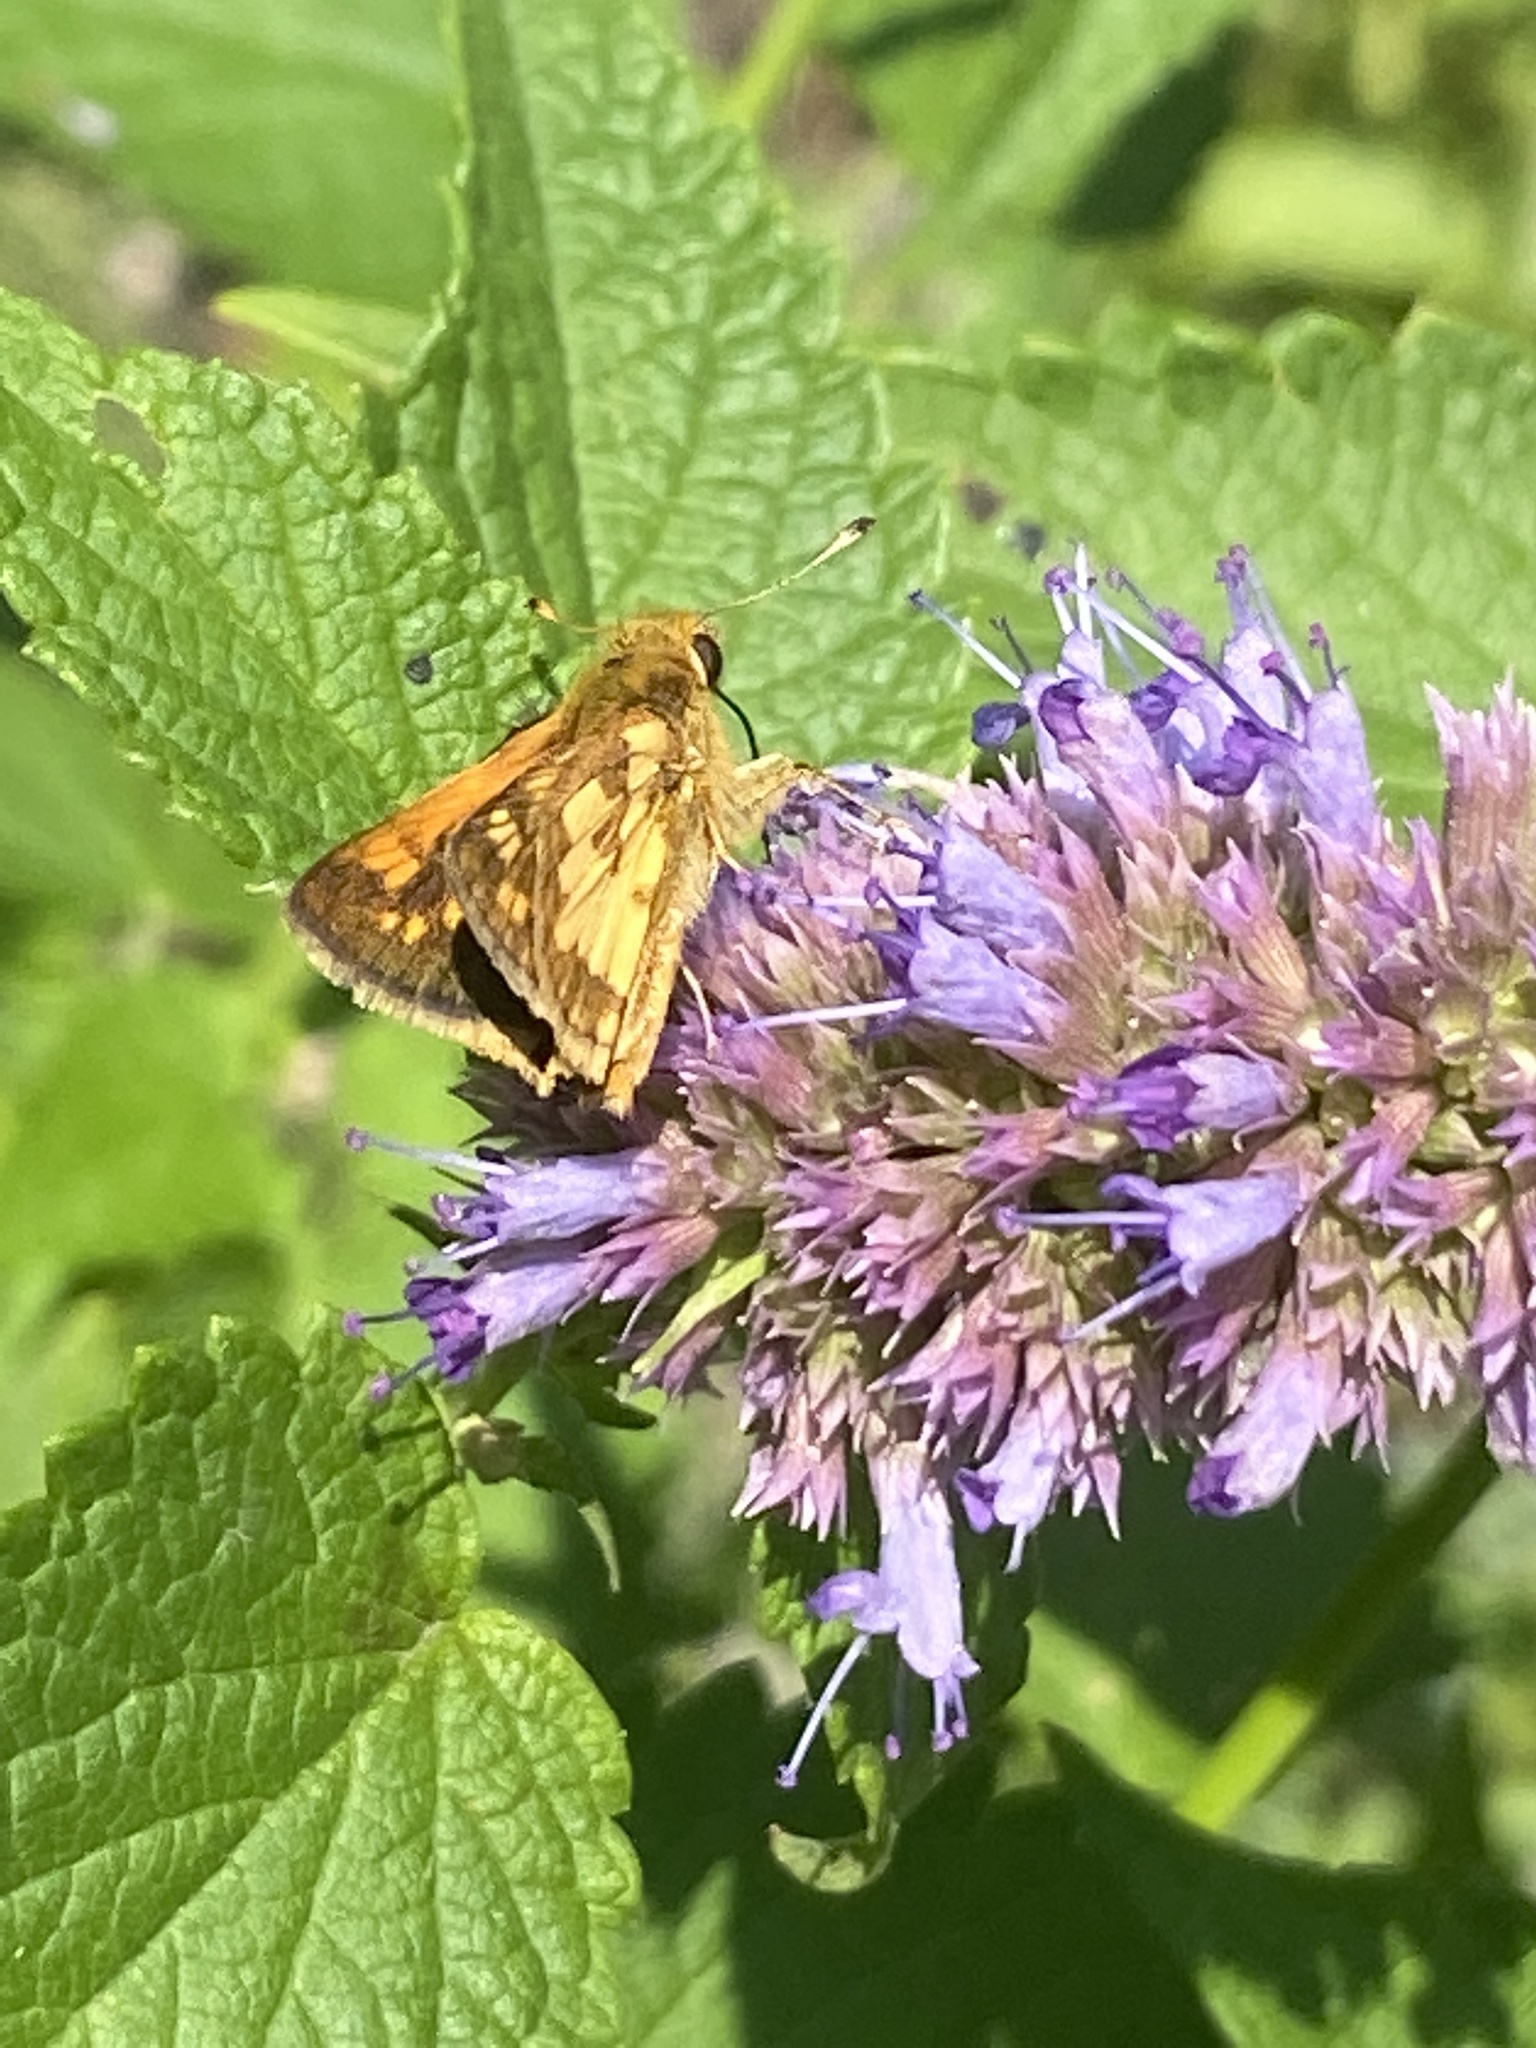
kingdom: Animalia
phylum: Arthropoda
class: Insecta
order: Lepidoptera
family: Hesperiidae
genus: Polites
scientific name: Polites coras
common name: Peck's skipper
